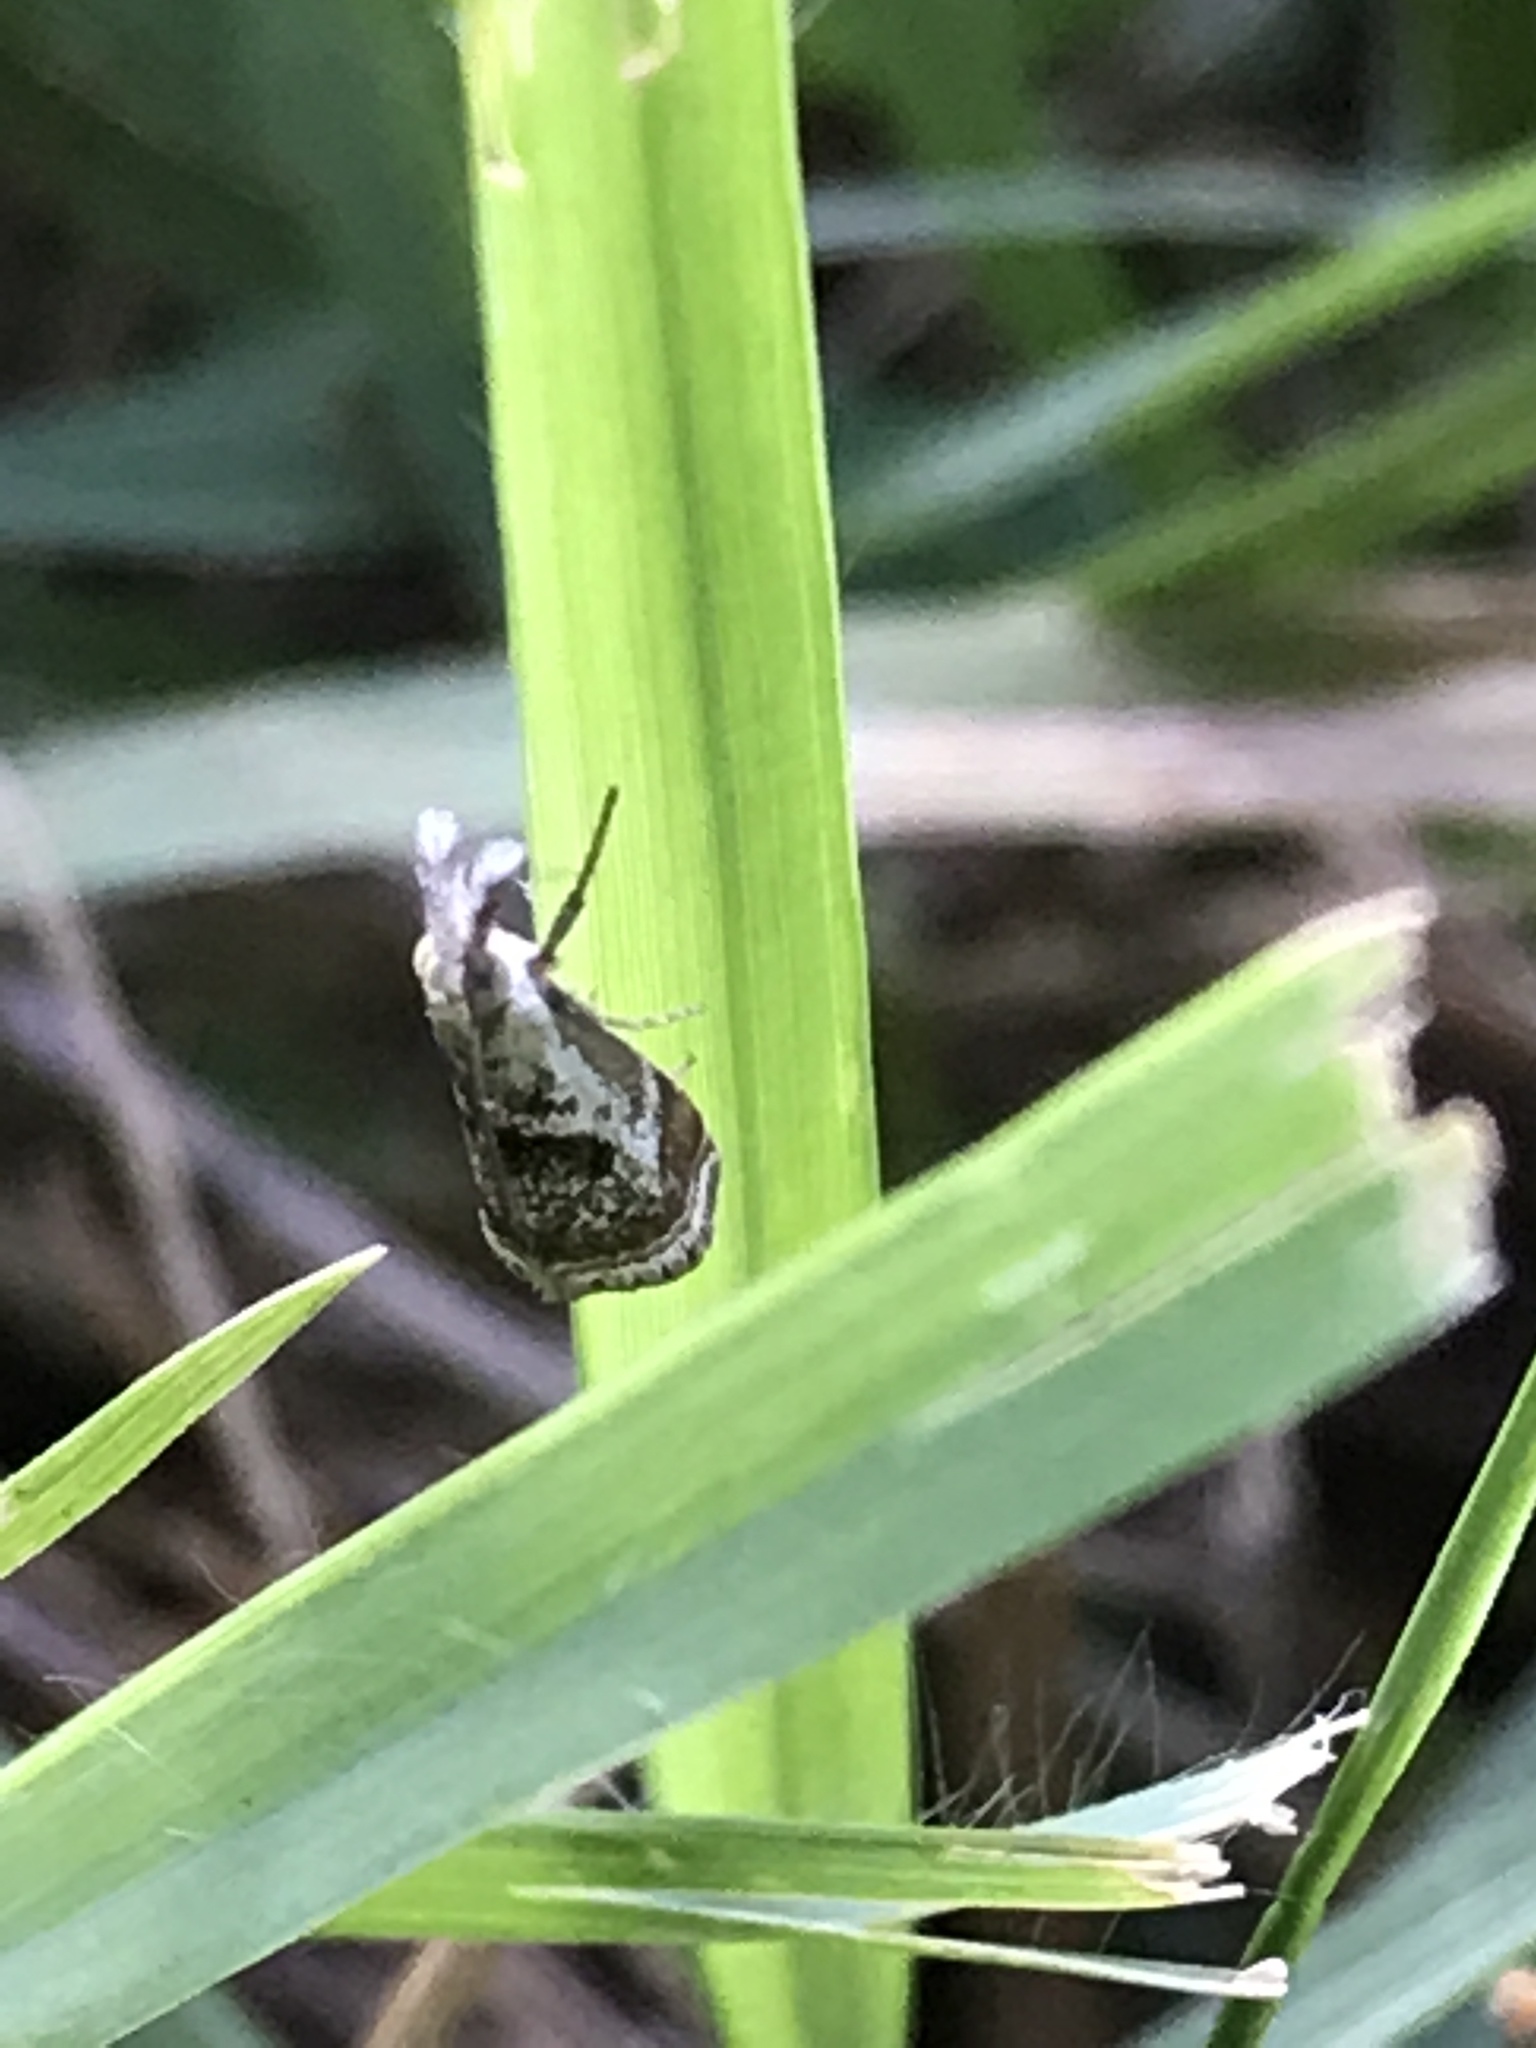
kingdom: Animalia
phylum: Arthropoda
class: Insecta
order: Lepidoptera
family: Crambidae
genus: Microcrambus
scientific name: Microcrambus elegans
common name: Elegant grass-veneer
